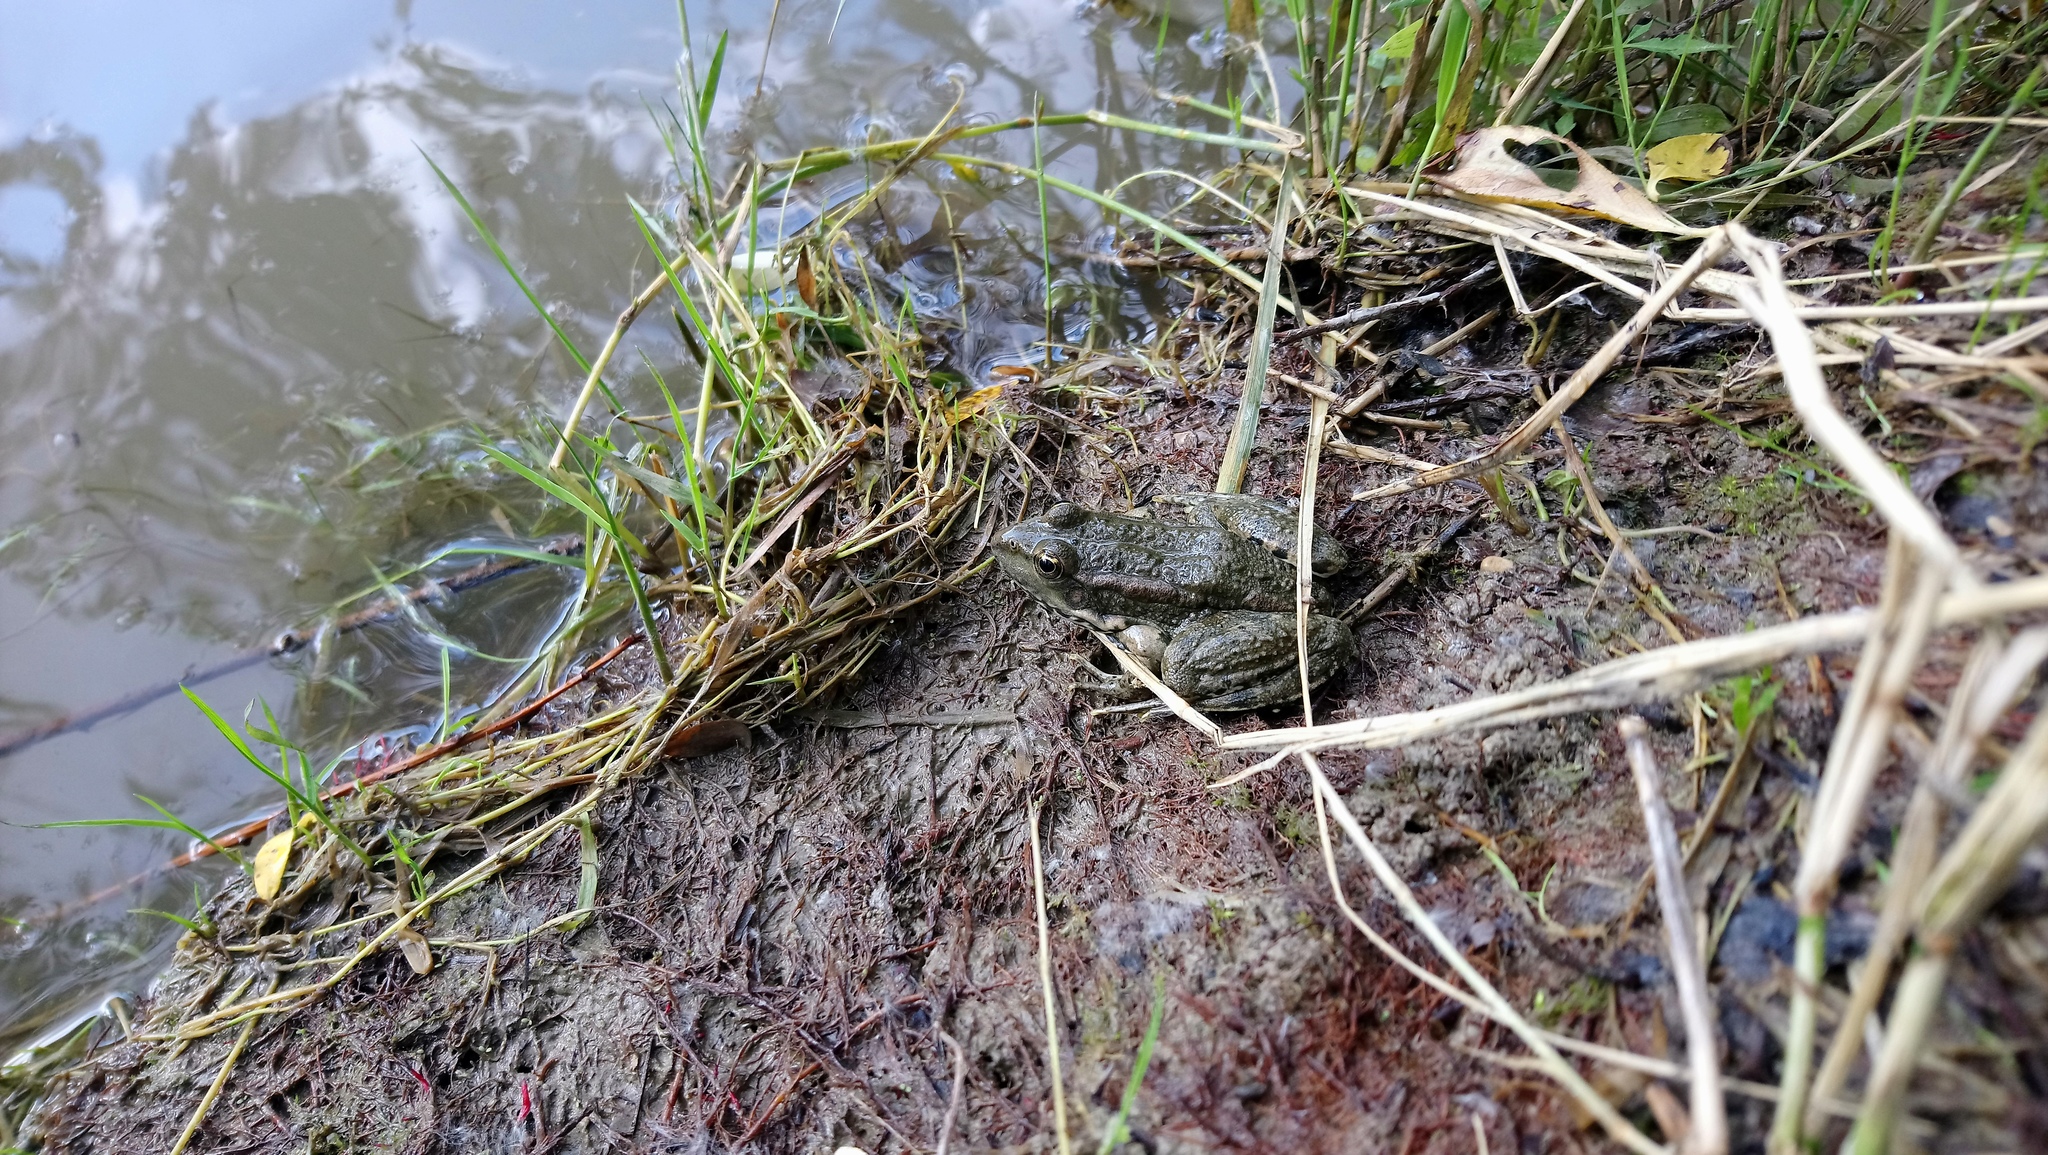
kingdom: Animalia
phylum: Chordata
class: Amphibia
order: Anura
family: Ranidae
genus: Pelophylax
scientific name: Pelophylax ridibundus
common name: Marsh frog
